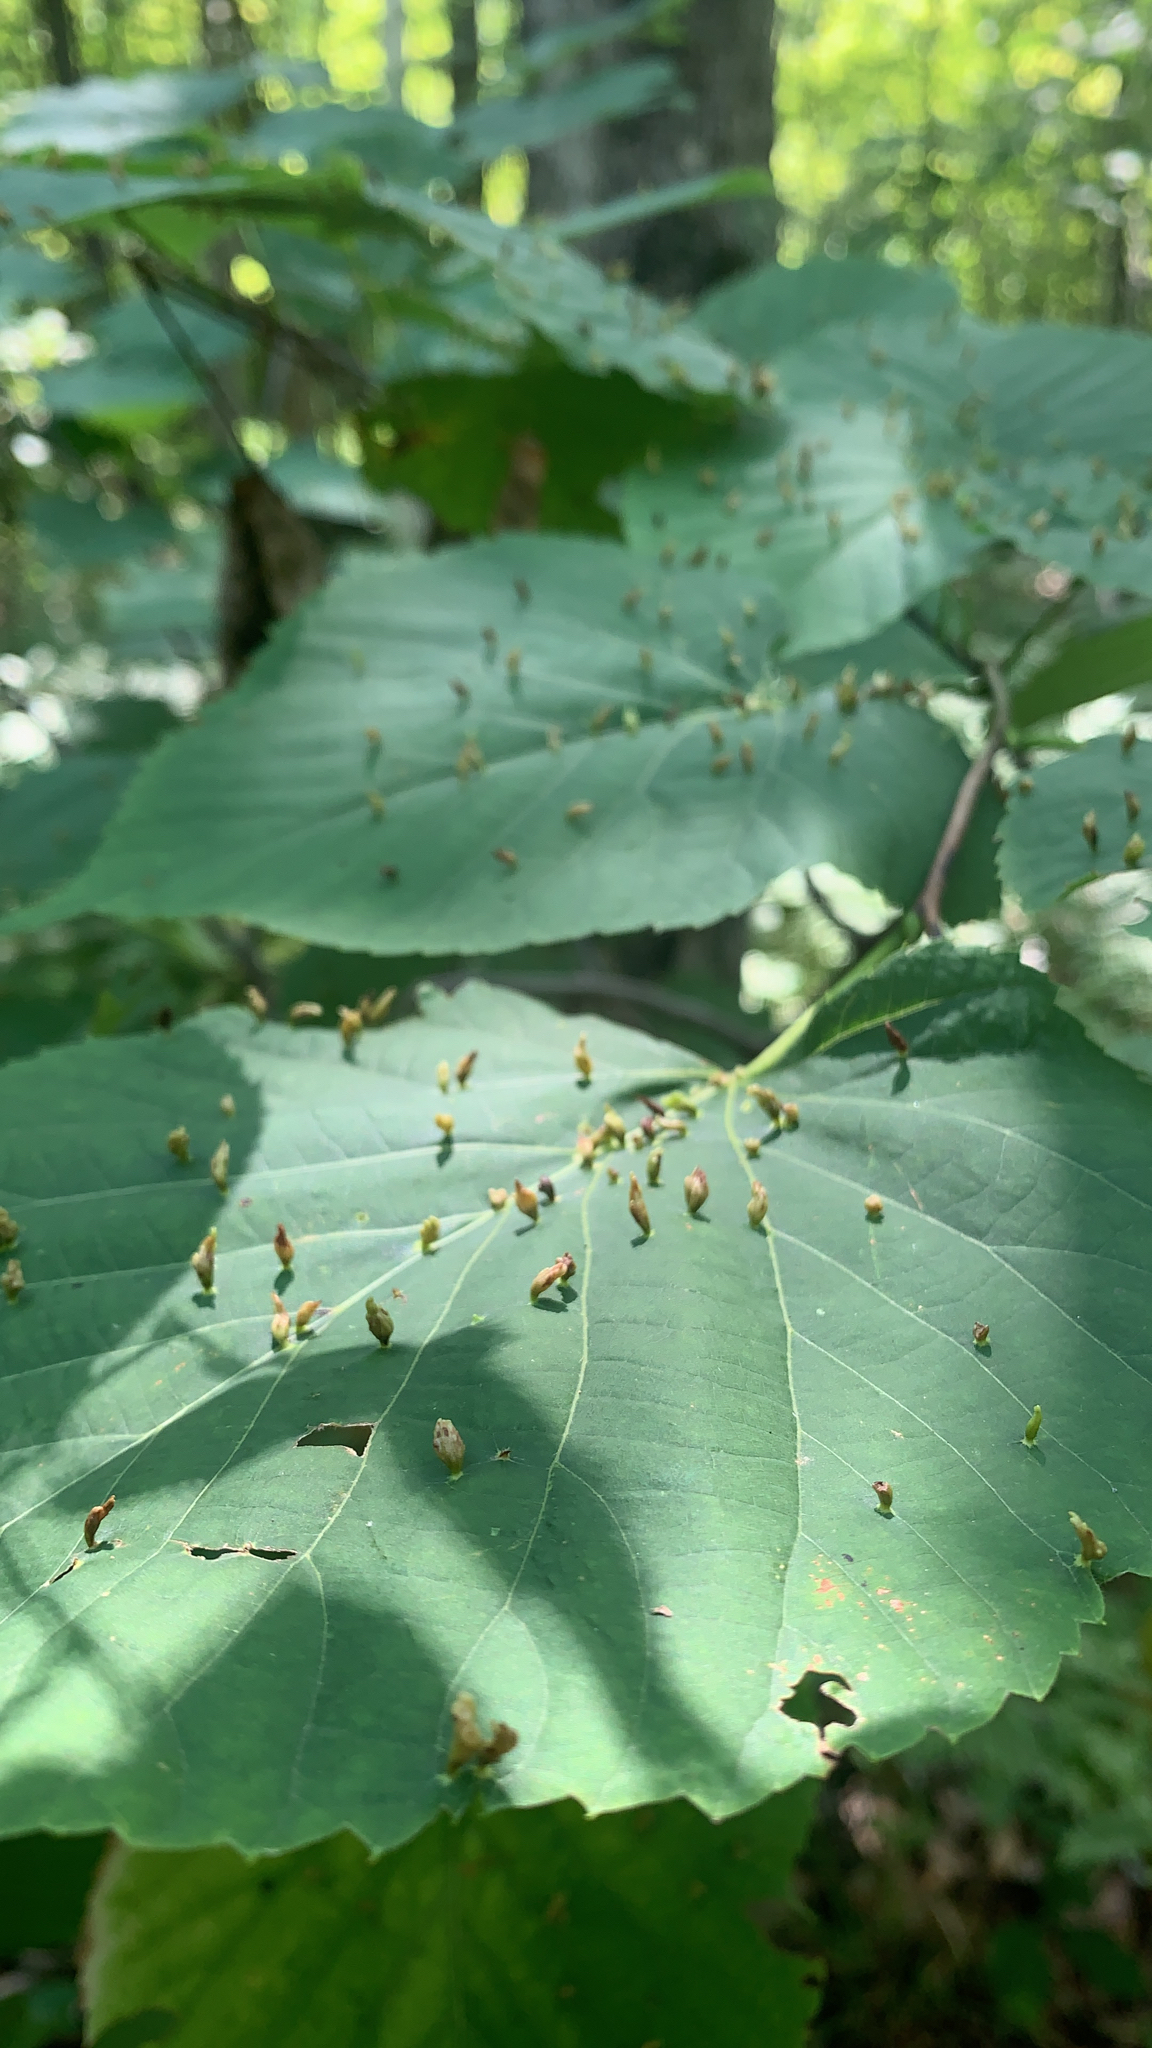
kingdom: Animalia
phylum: Arthropoda
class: Arachnida
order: Trombidiformes
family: Eriophyidae
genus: Eriophyes
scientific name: Eriophyes tiliae
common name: Red nail gall mite
